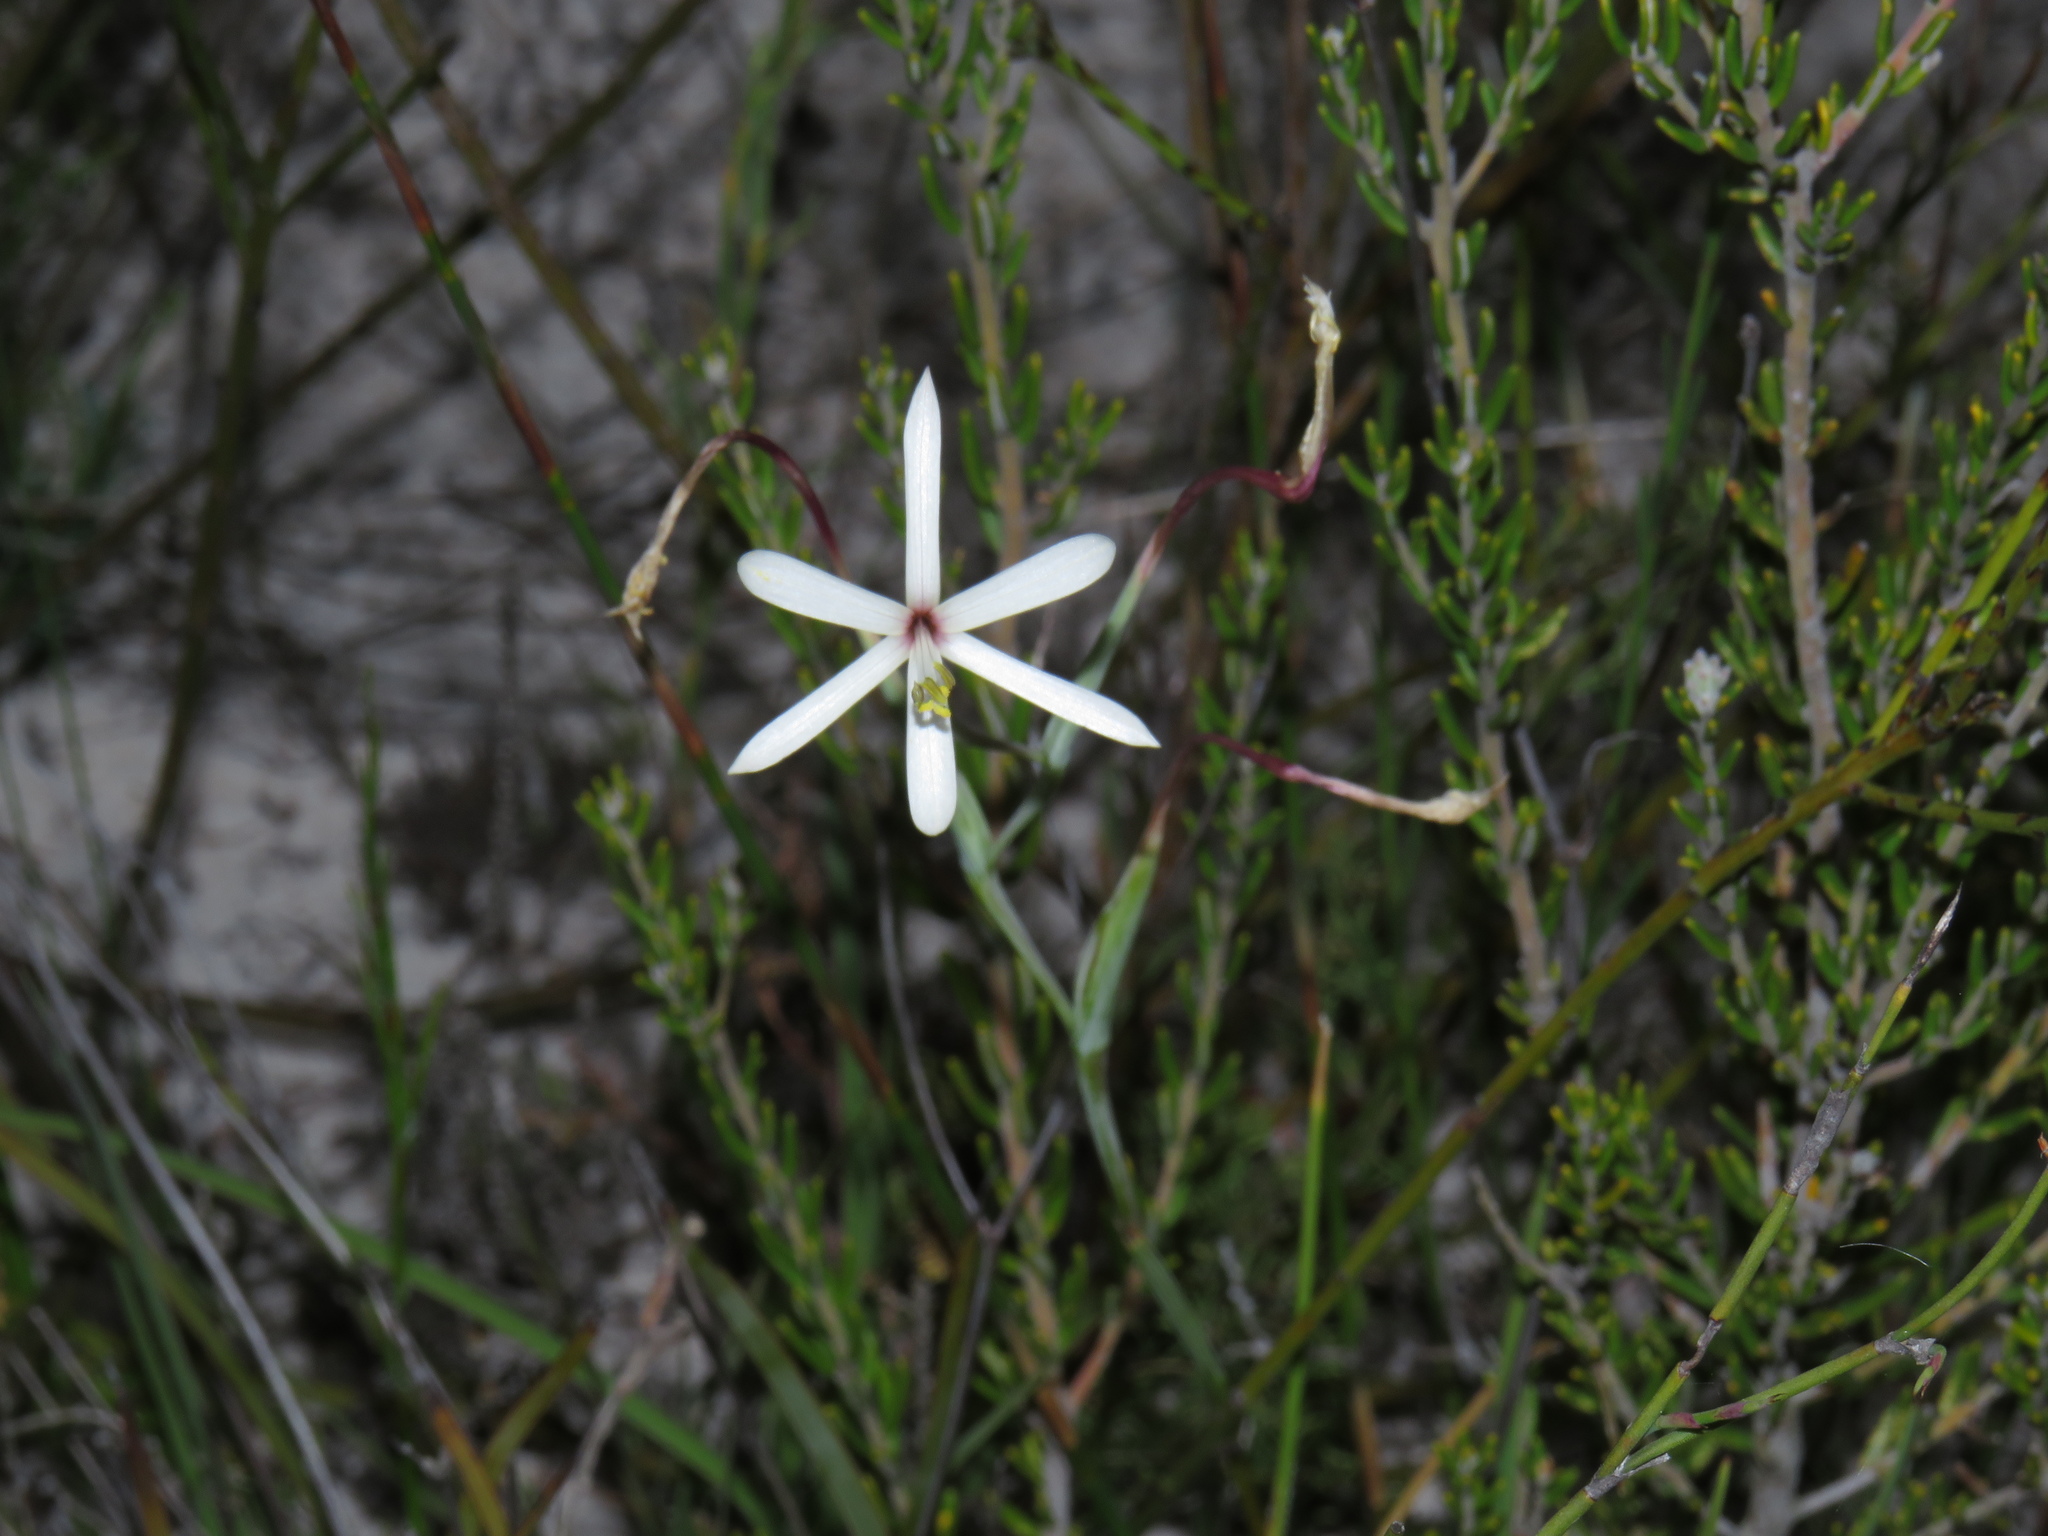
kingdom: Plantae
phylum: Tracheophyta
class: Liliopsida
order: Asparagales
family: Iridaceae
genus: Geissorhiza
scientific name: Geissorhiza tenella
